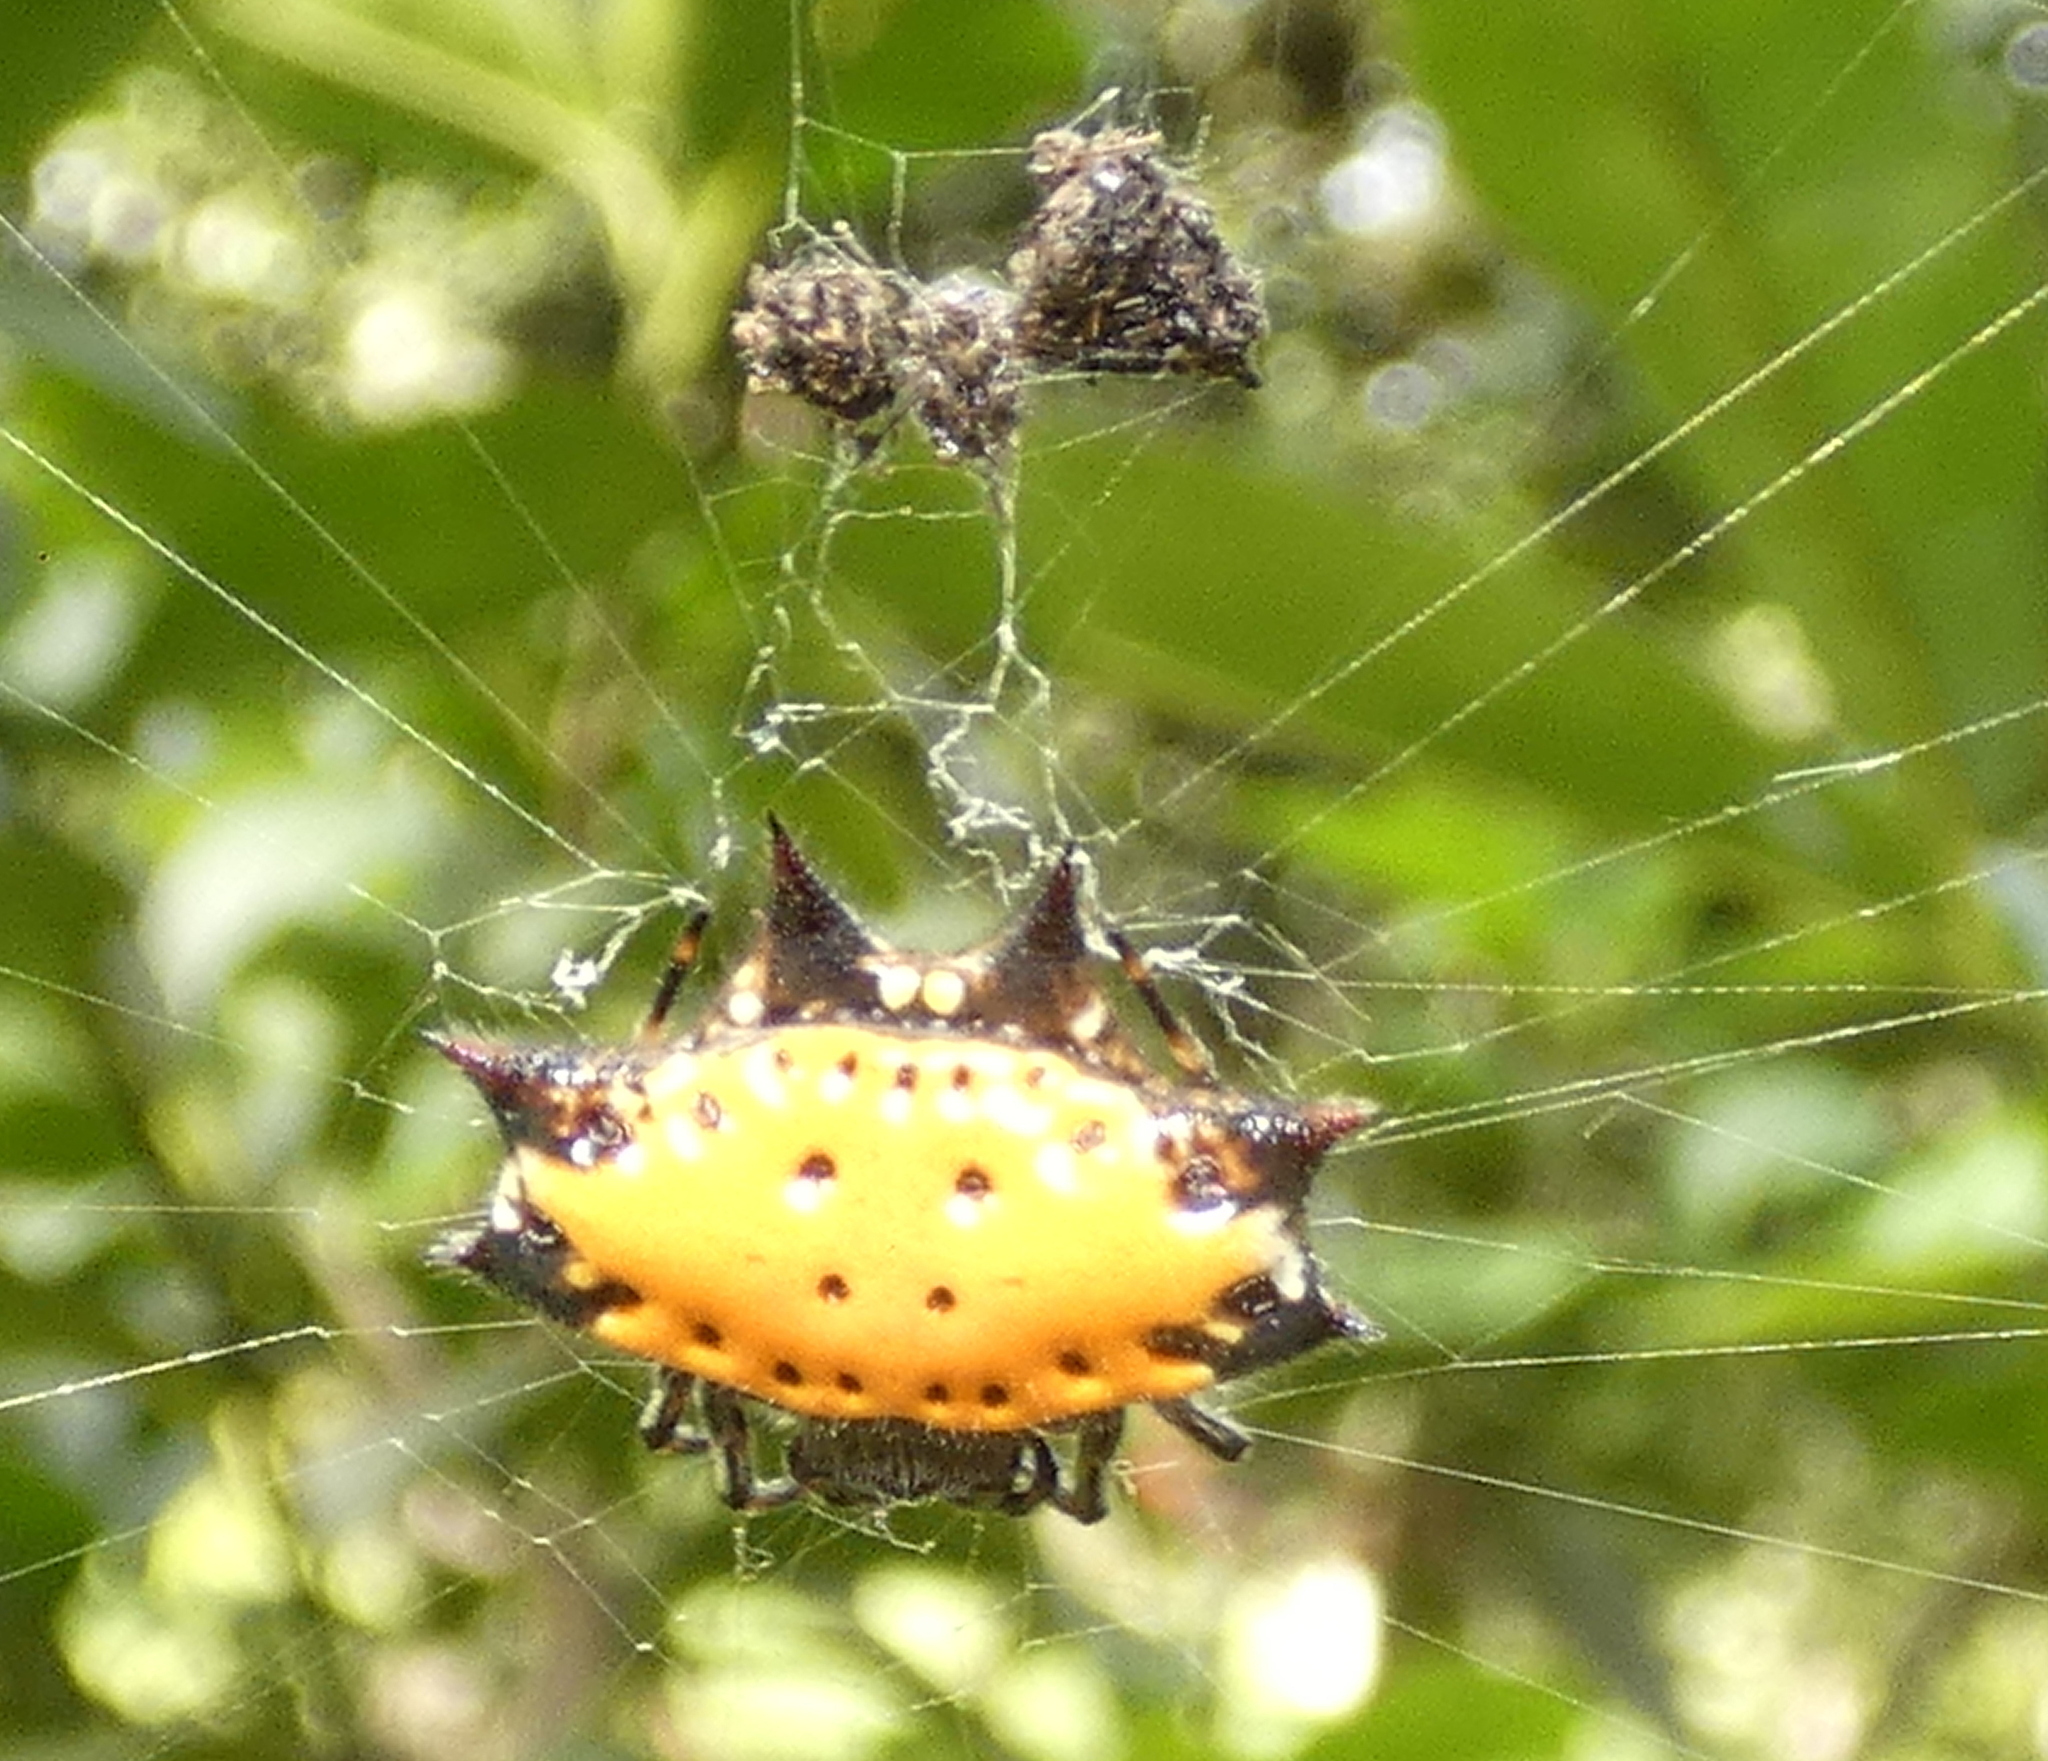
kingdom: Animalia
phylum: Arthropoda
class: Arachnida
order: Araneae
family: Araneidae
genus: Gasteracantha
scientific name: Gasteracantha cancriformis
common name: Orb weavers
